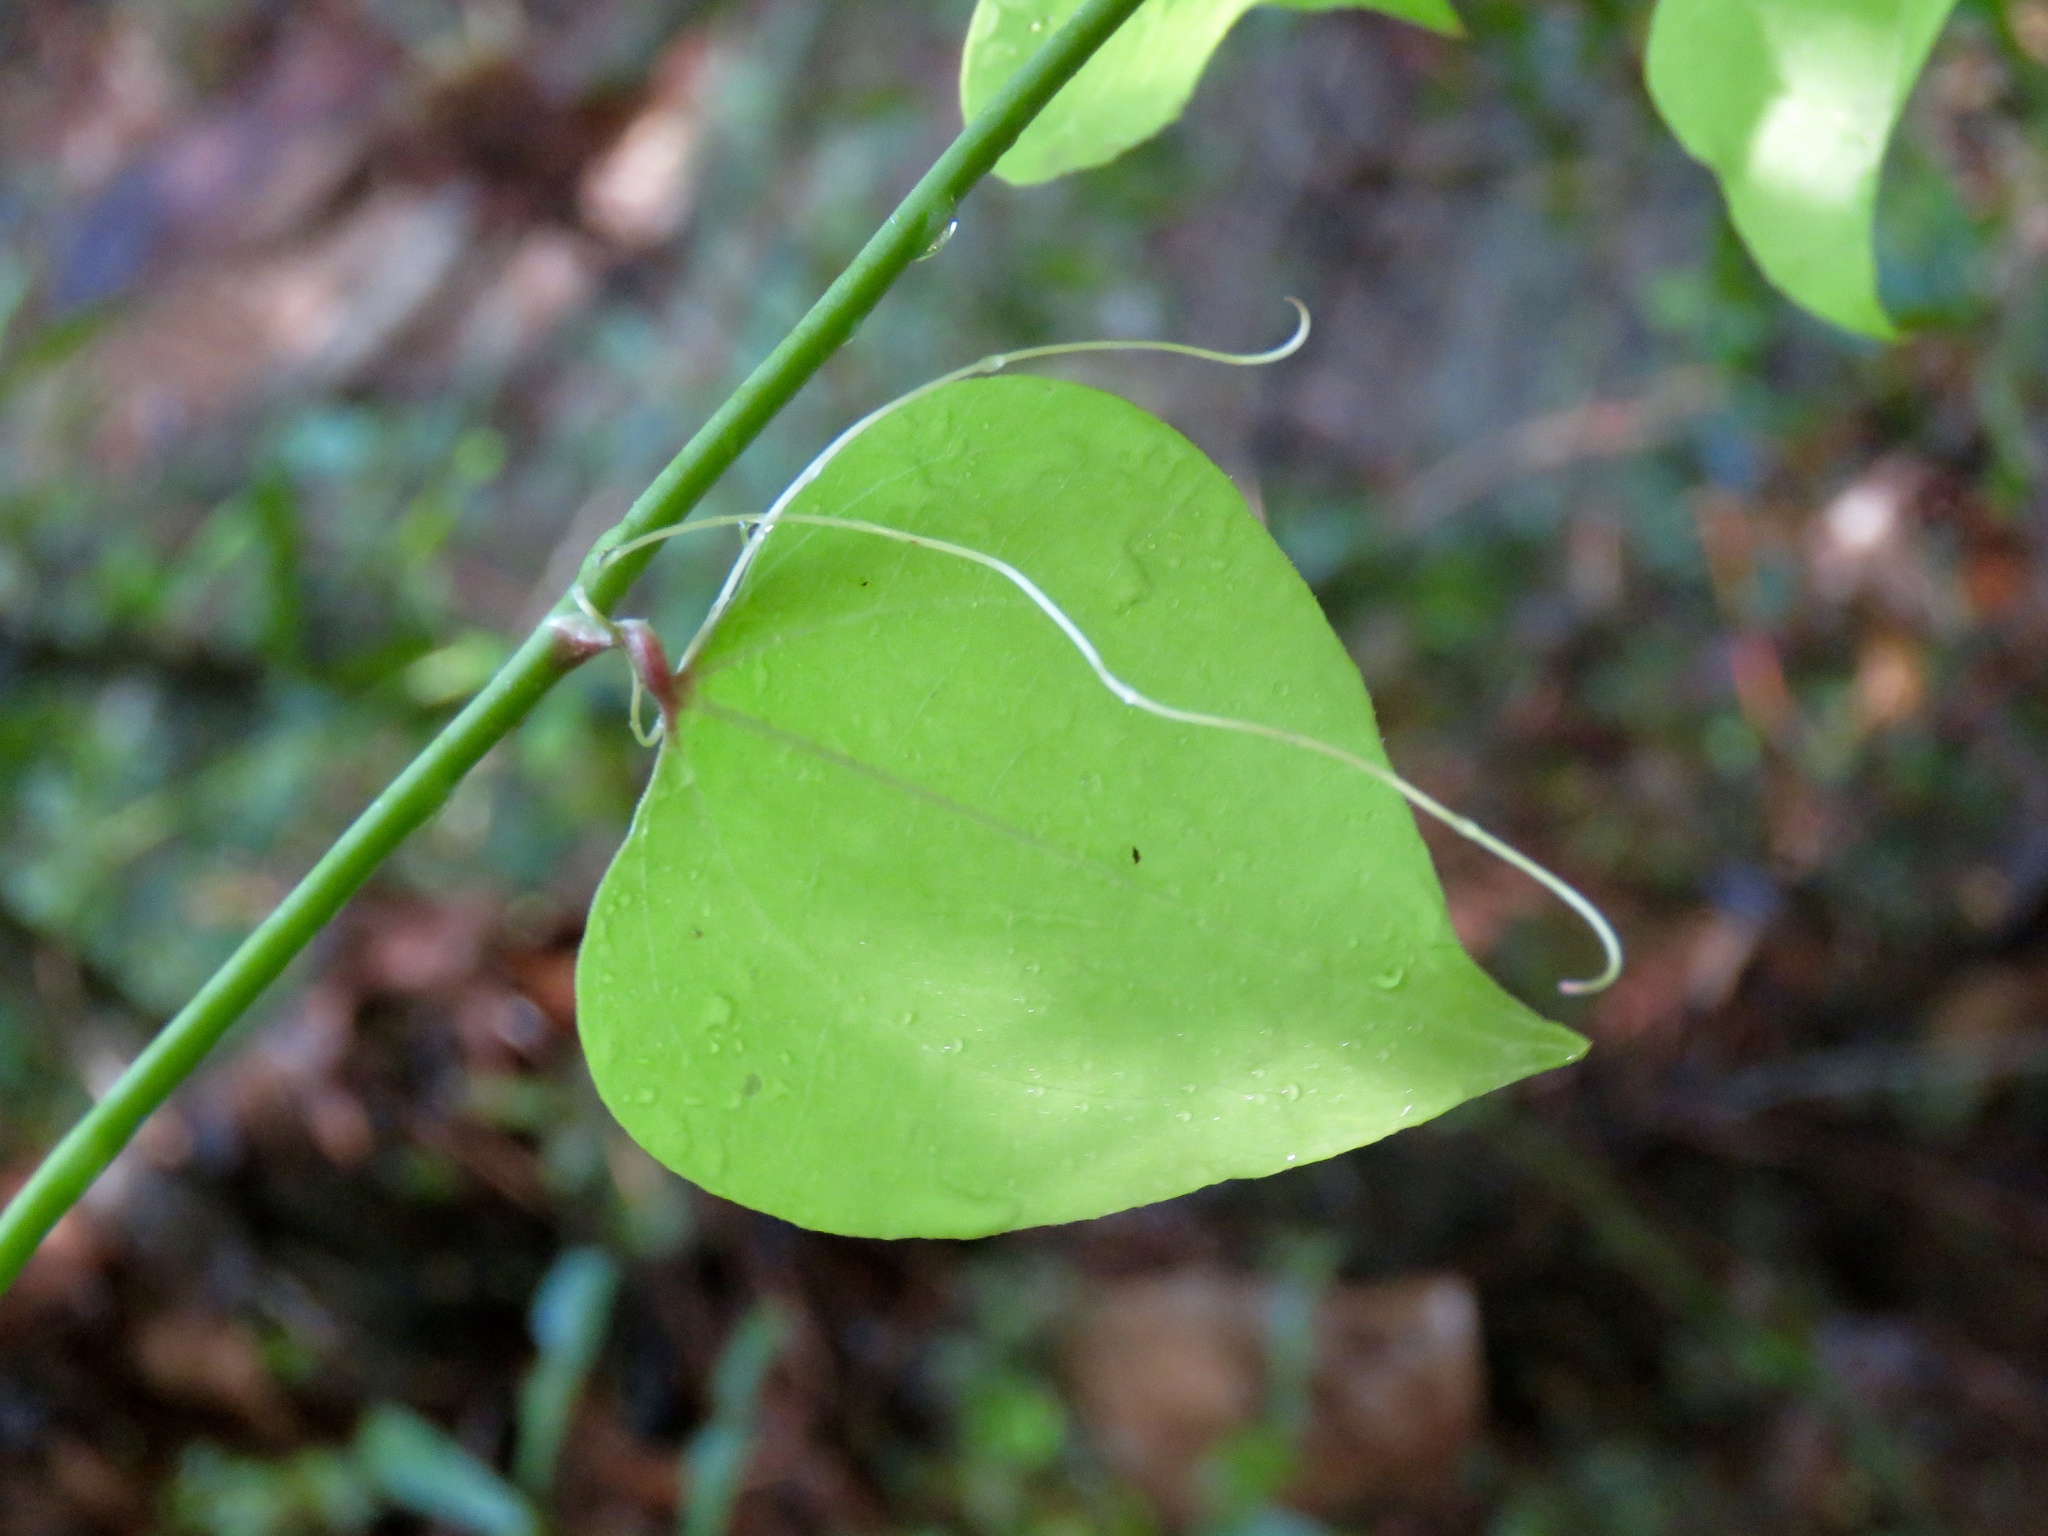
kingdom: Plantae
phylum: Tracheophyta
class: Liliopsida
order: Liliales
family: Smilacaceae
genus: Smilax
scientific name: Smilax rotundifolia
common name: Bullbriar
